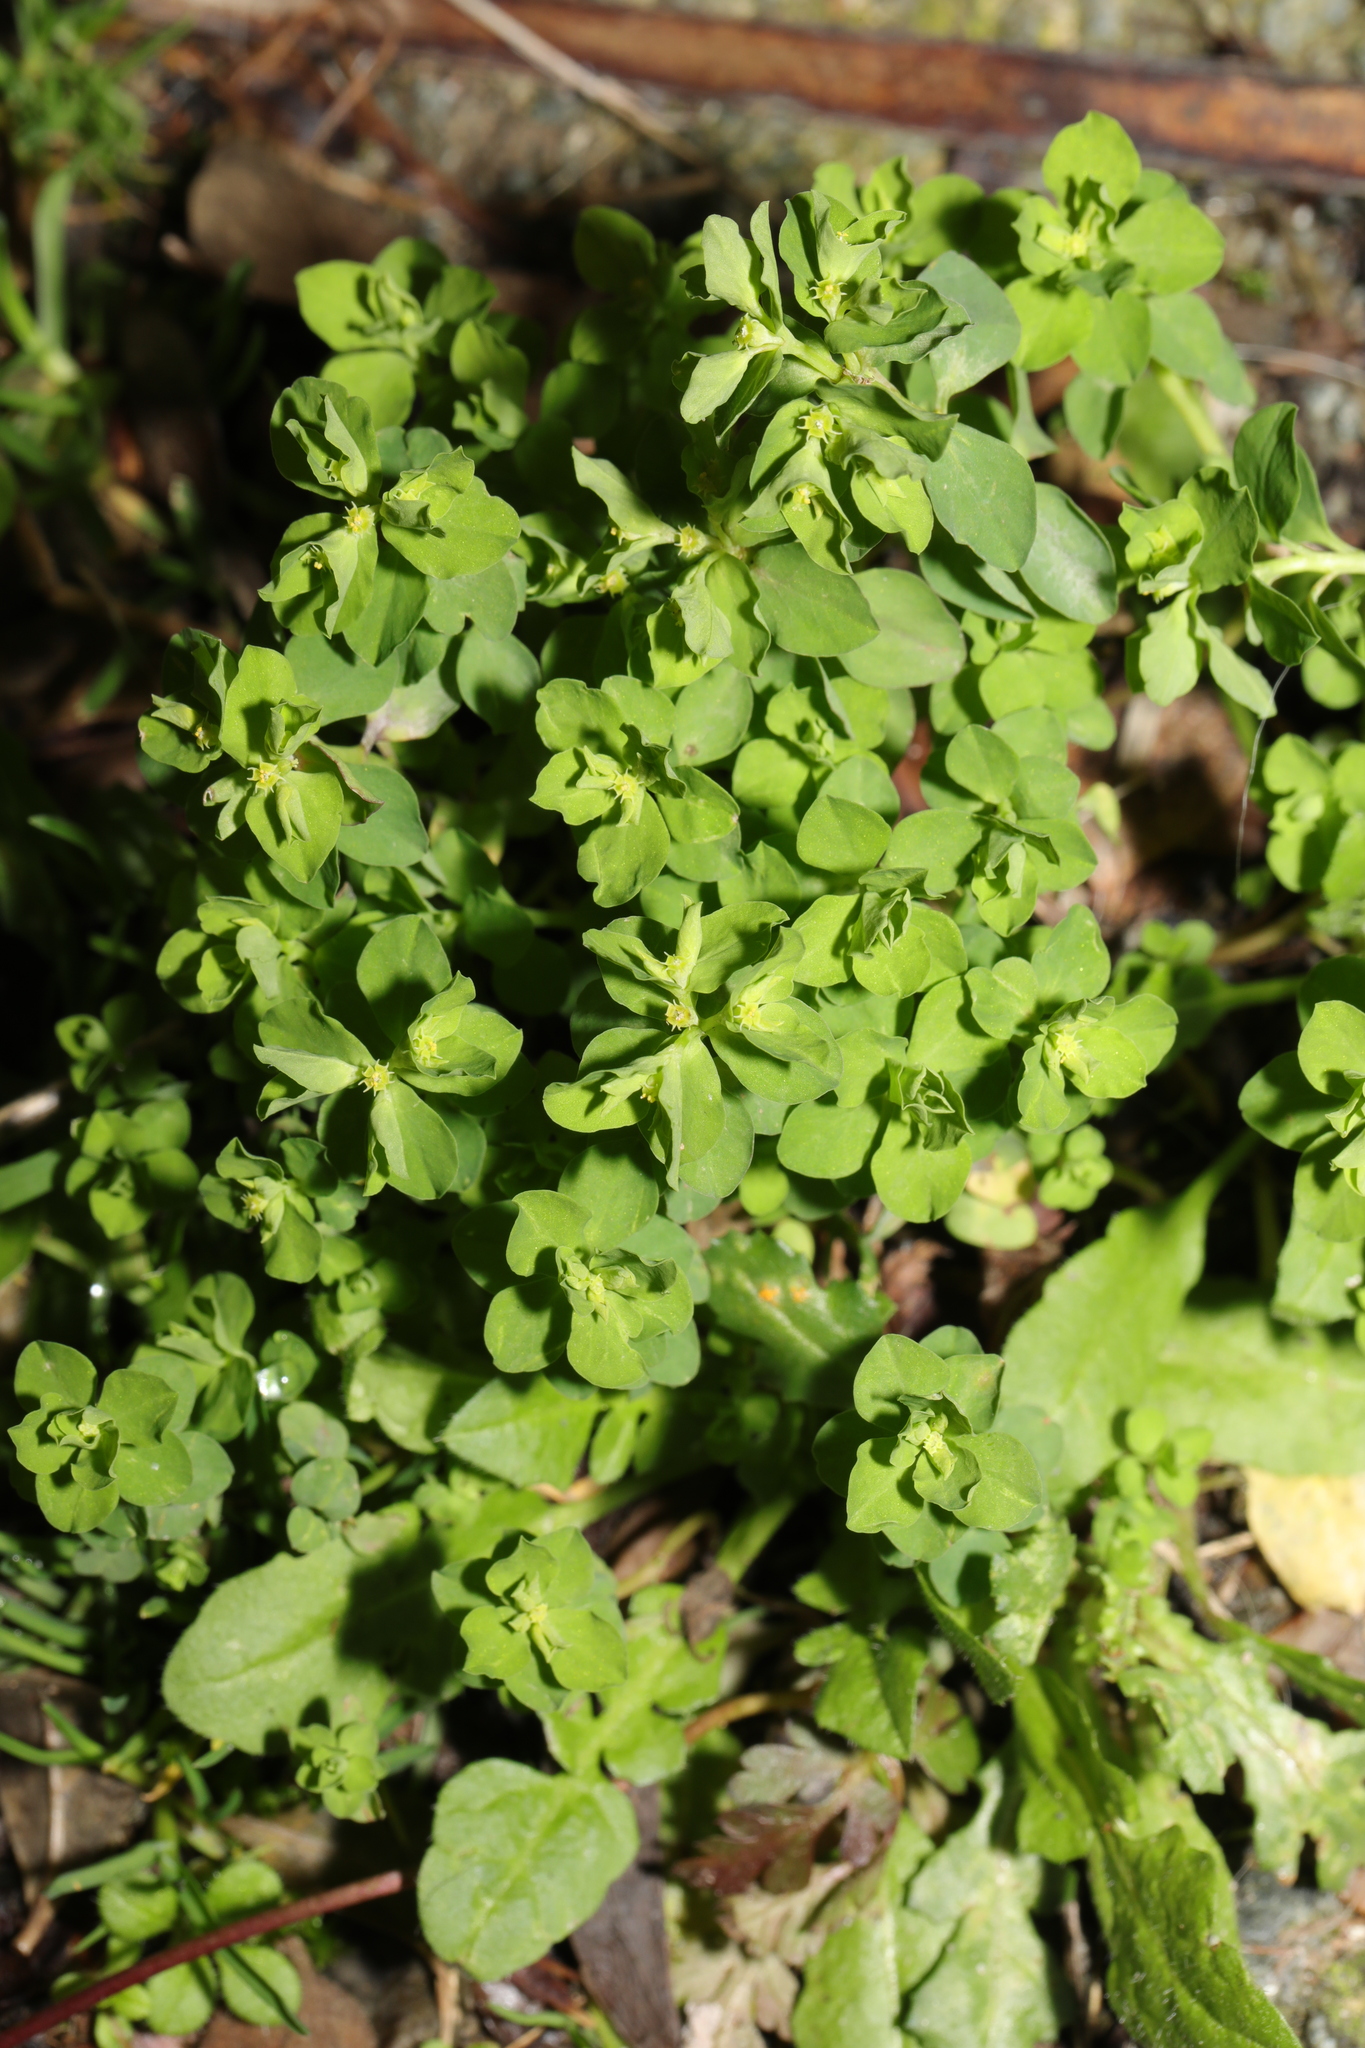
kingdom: Plantae
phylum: Tracheophyta
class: Magnoliopsida
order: Malpighiales
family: Euphorbiaceae
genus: Euphorbia
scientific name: Euphorbia peplus
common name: Petty spurge
